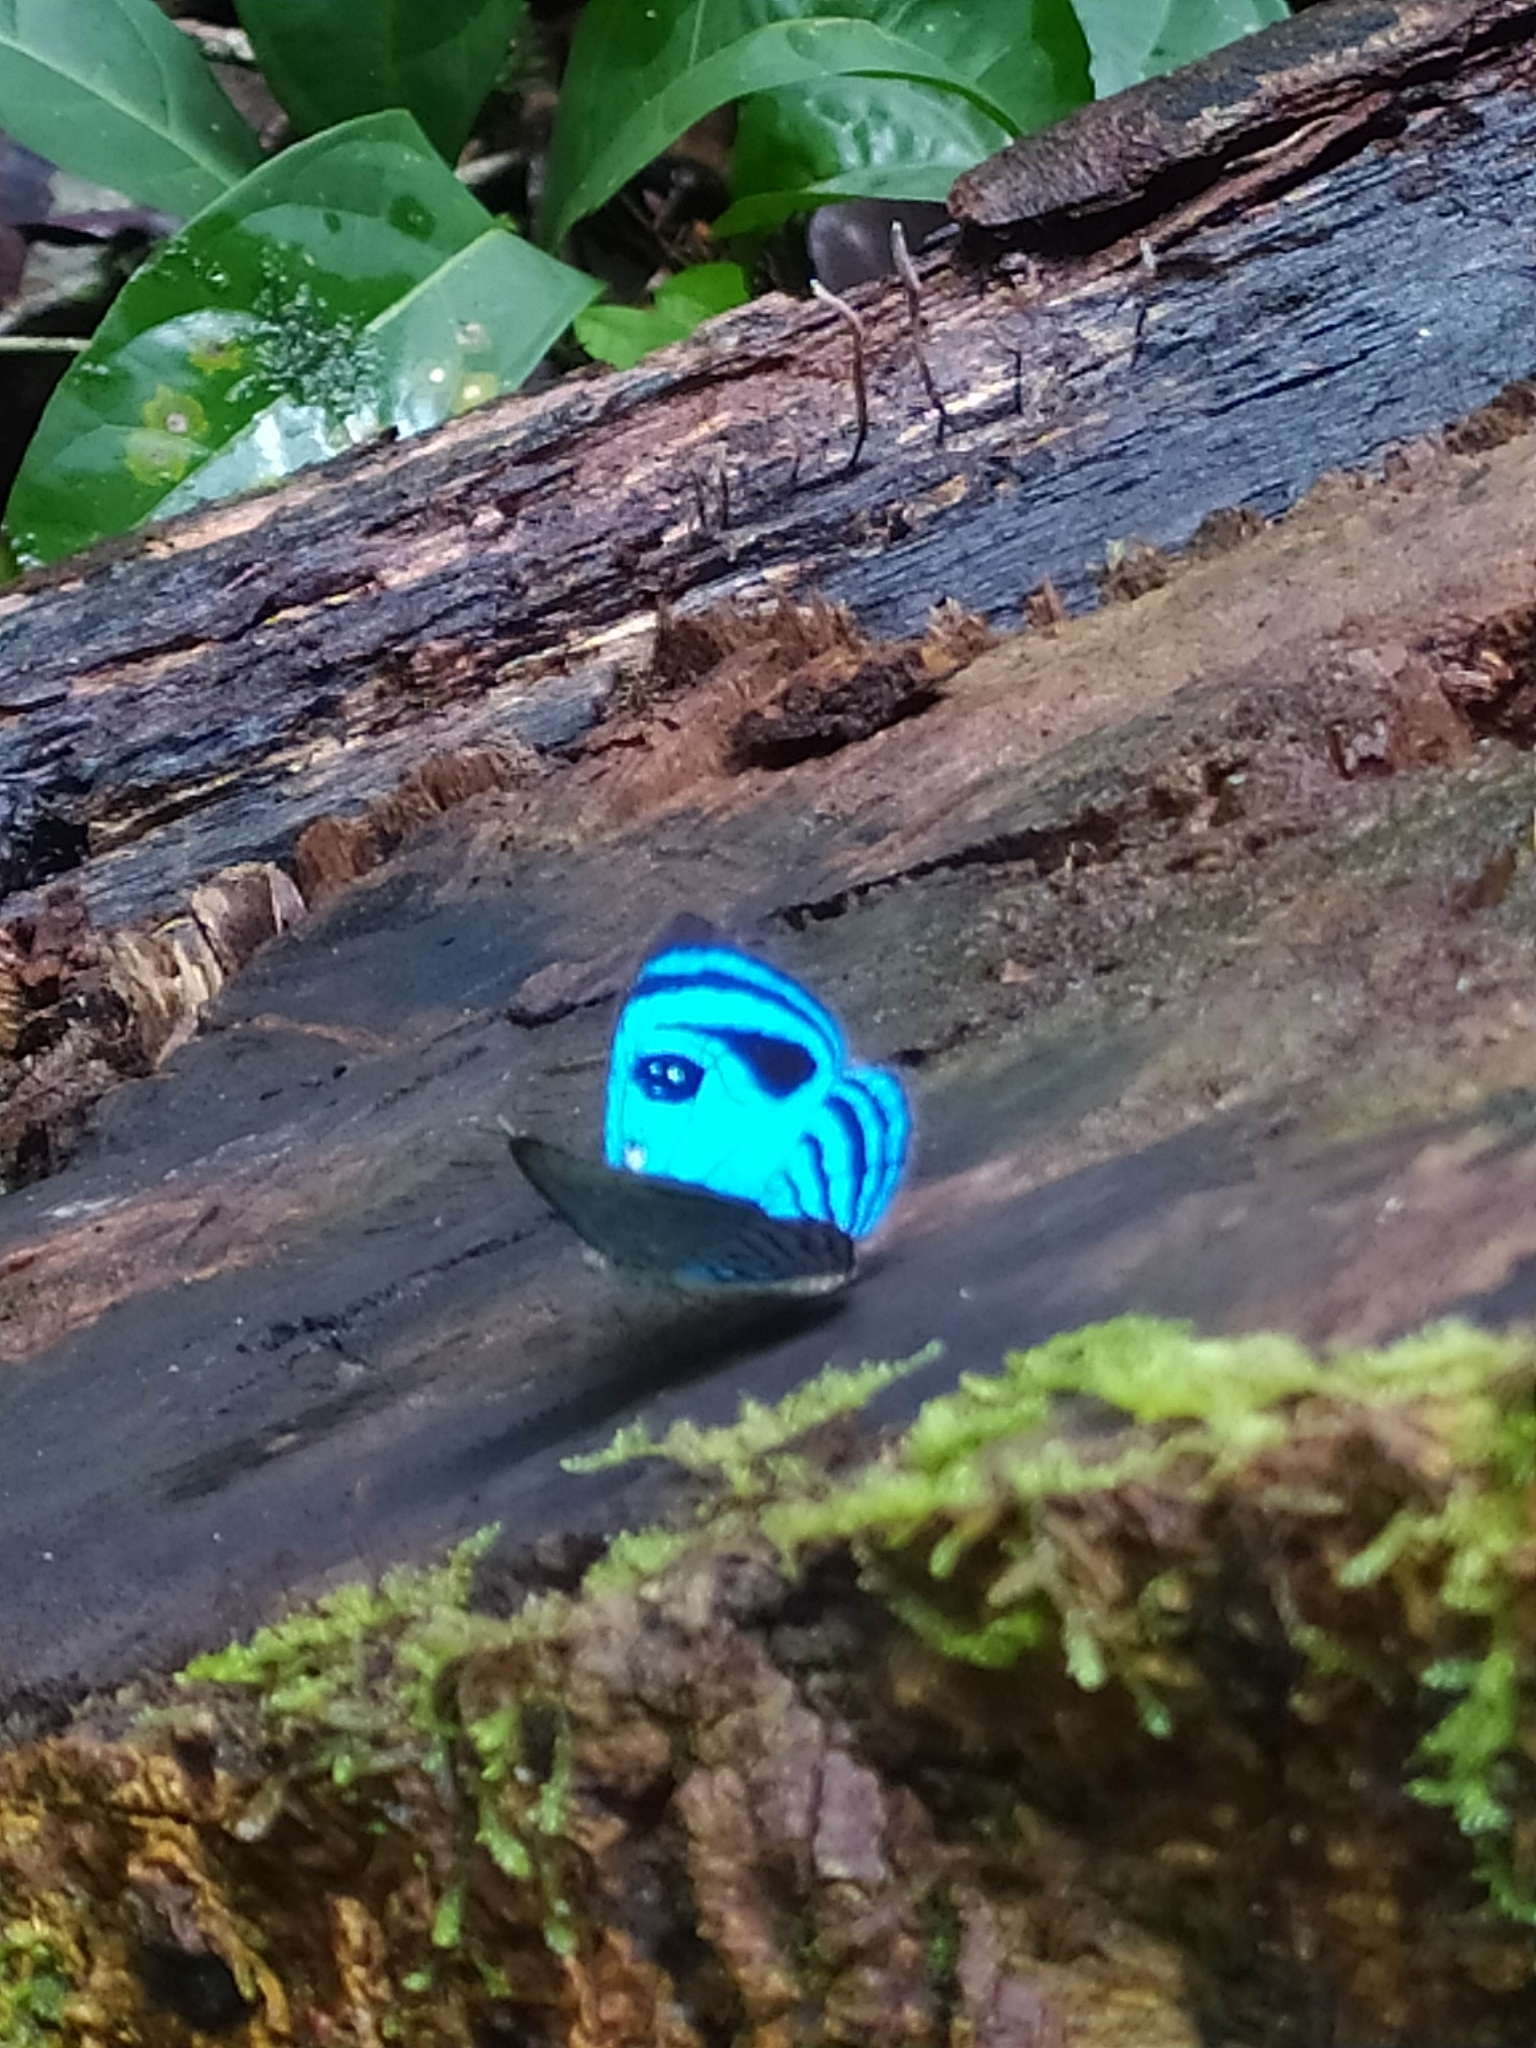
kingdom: Animalia
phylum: Arthropoda
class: Insecta
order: Diptera
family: Platystomatidae
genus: Simomesia
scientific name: Simomesia
